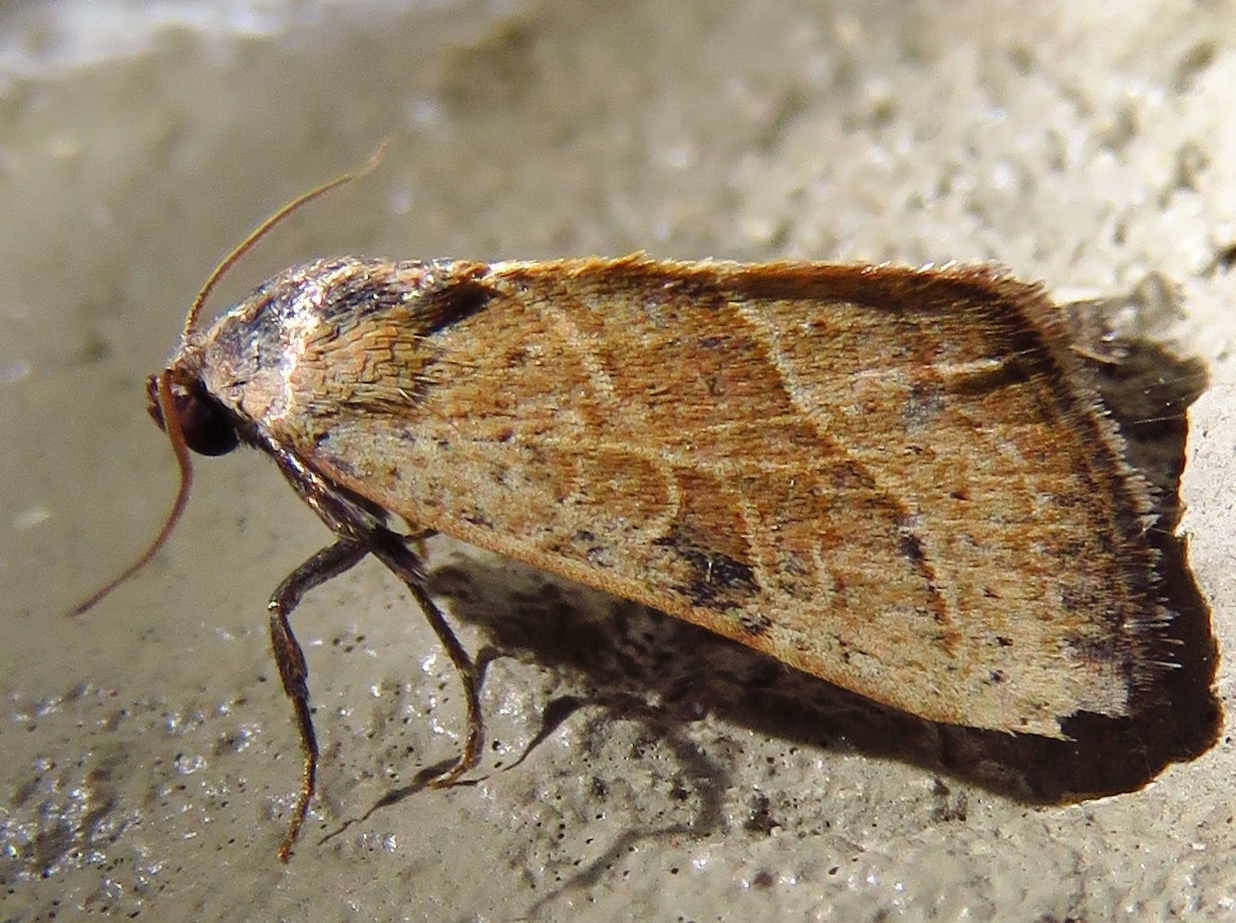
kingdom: Animalia
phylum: Arthropoda
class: Insecta
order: Lepidoptera
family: Noctuidae
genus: Galgula
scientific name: Galgula partita
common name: Wedgeling
